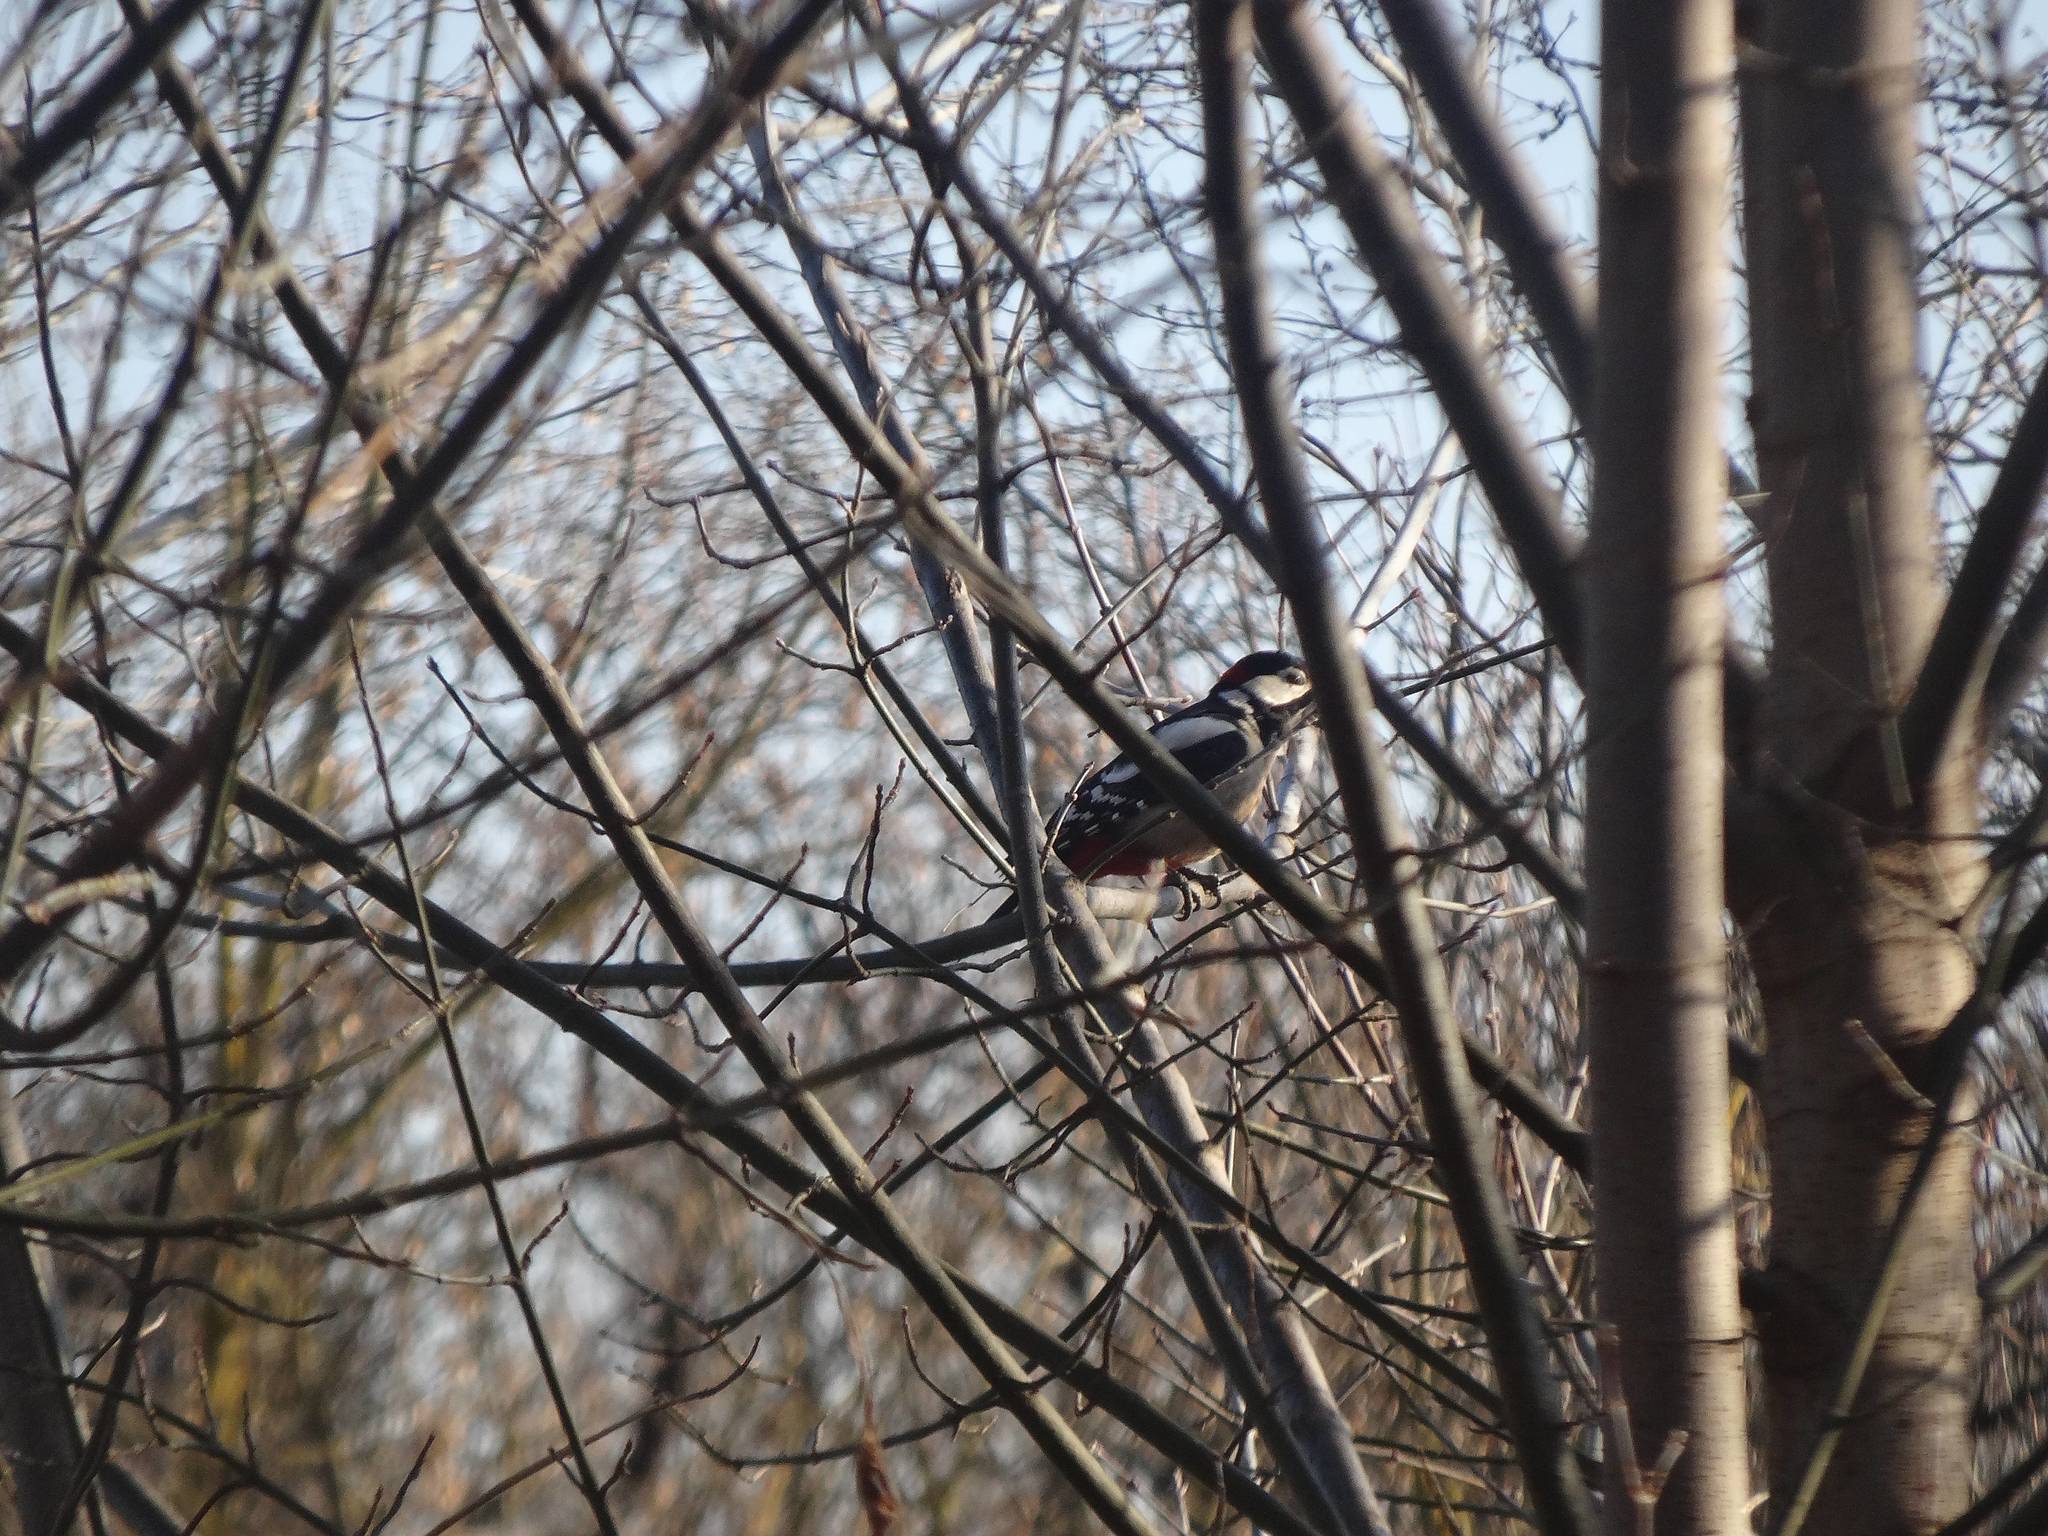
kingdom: Animalia
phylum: Chordata
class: Aves
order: Piciformes
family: Picidae
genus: Dendrocopos
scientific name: Dendrocopos major
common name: Great spotted woodpecker
